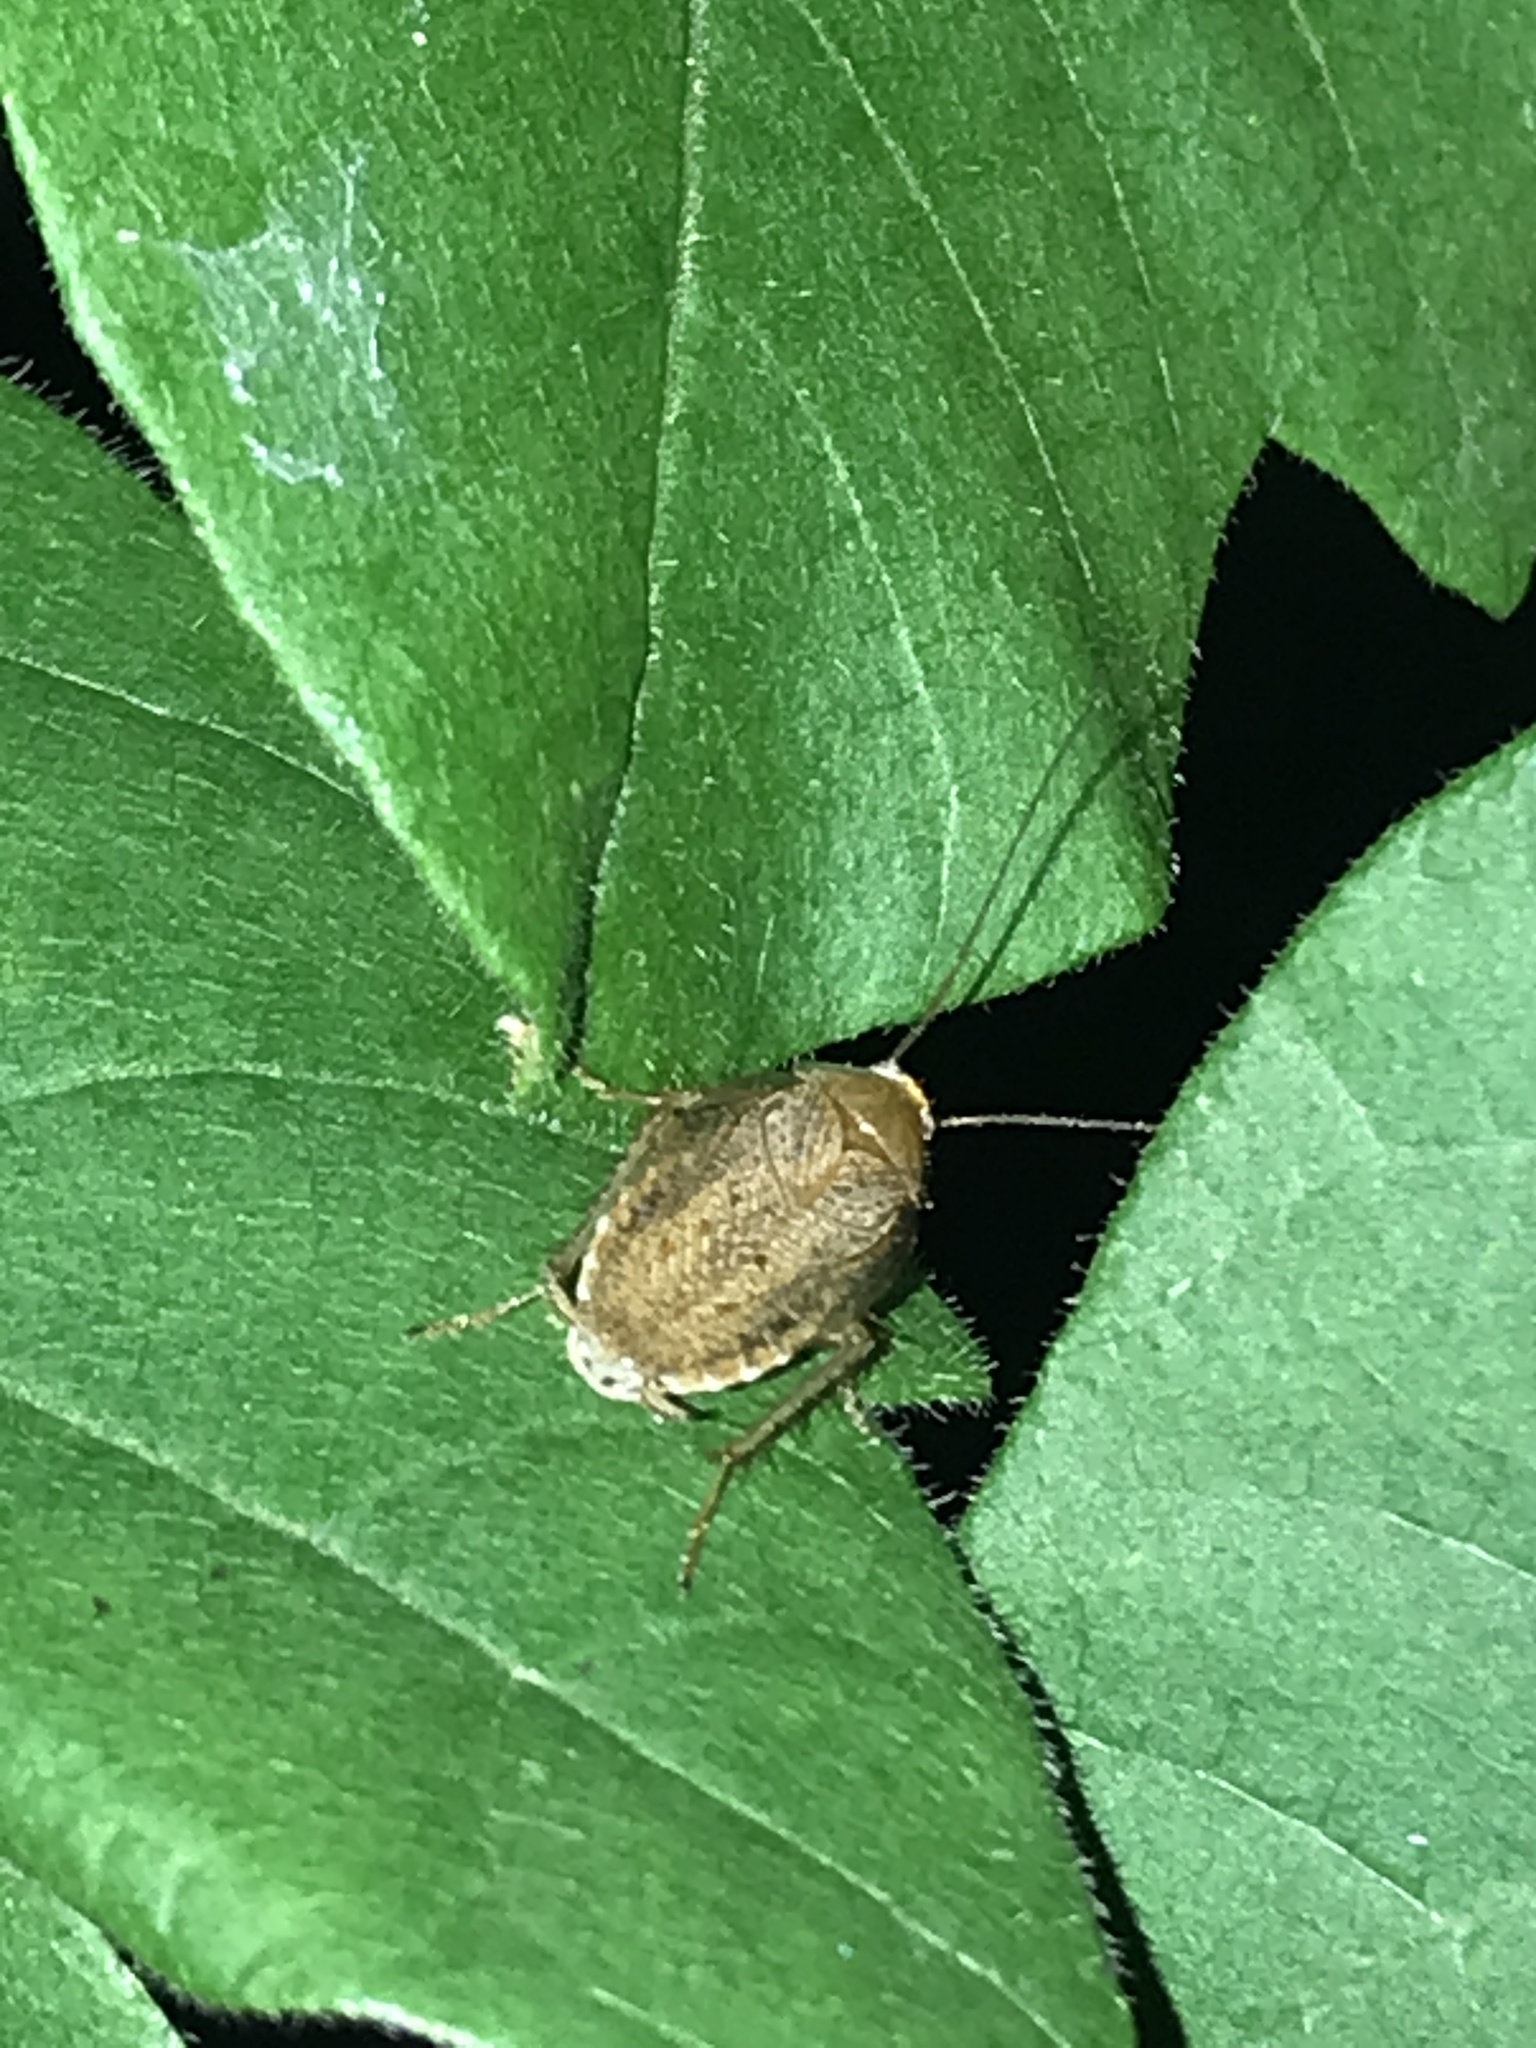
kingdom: Animalia
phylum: Arthropoda
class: Insecta
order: Blattodea
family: Ectobiidae
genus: Ectobius
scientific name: Ectobius pallidus
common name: Tawny cockroach
